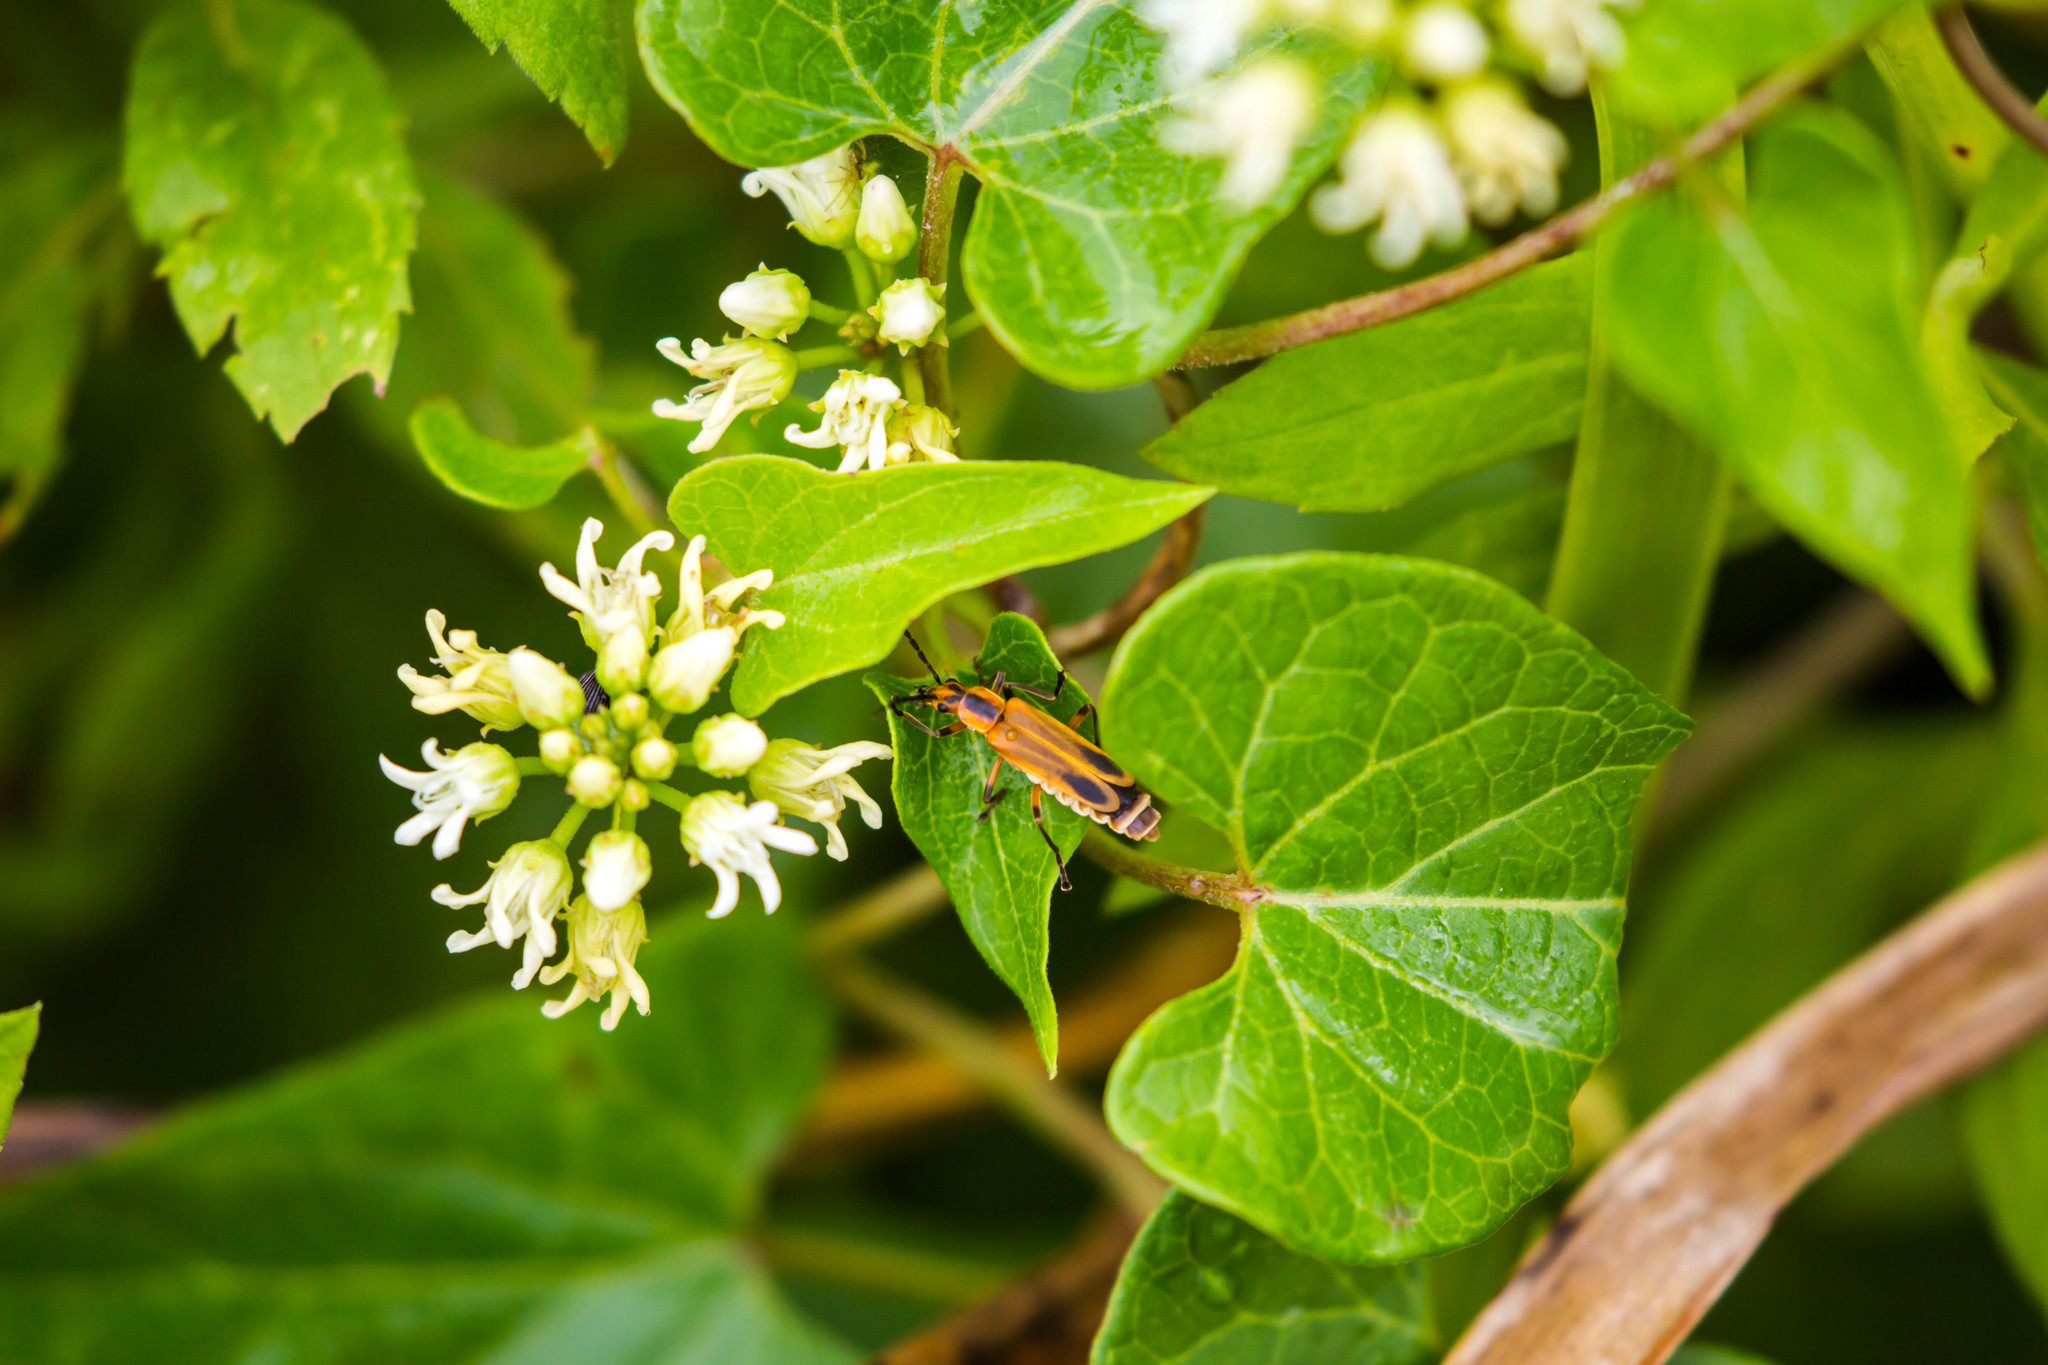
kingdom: Animalia
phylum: Arthropoda
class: Insecta
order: Coleoptera
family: Cantharidae
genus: Chauliognathus
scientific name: Chauliognathus marginatus
